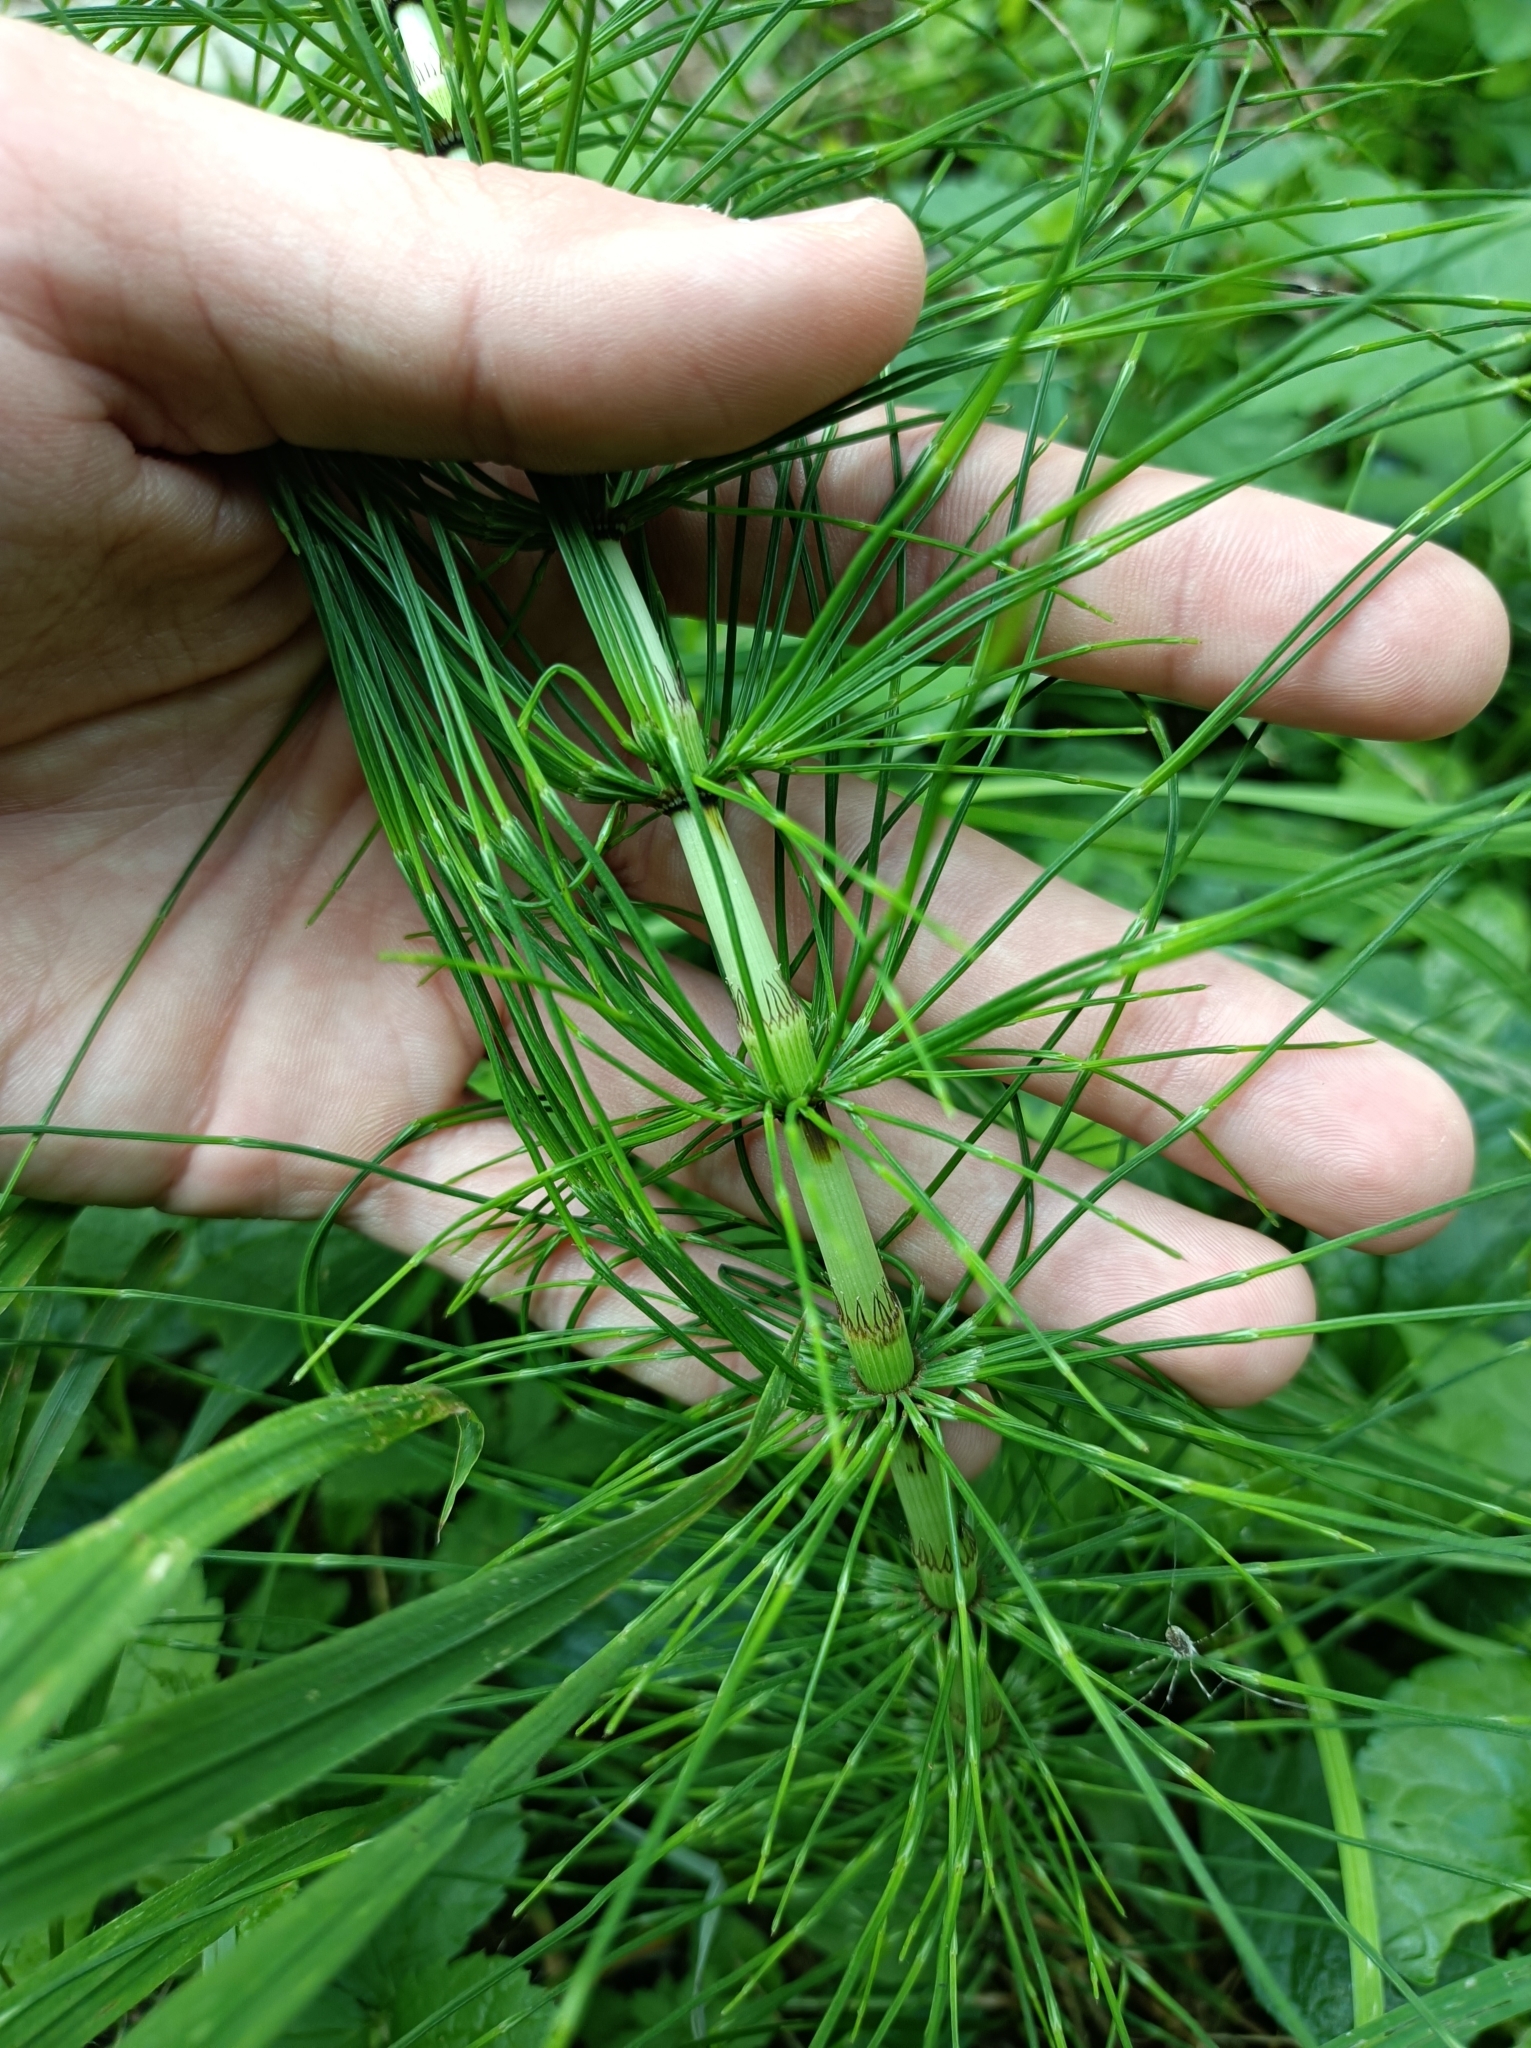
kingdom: Plantae
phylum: Tracheophyta
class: Polypodiopsida
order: Equisetales
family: Equisetaceae
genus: Equisetum
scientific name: Equisetum telmateia
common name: Great horsetail
